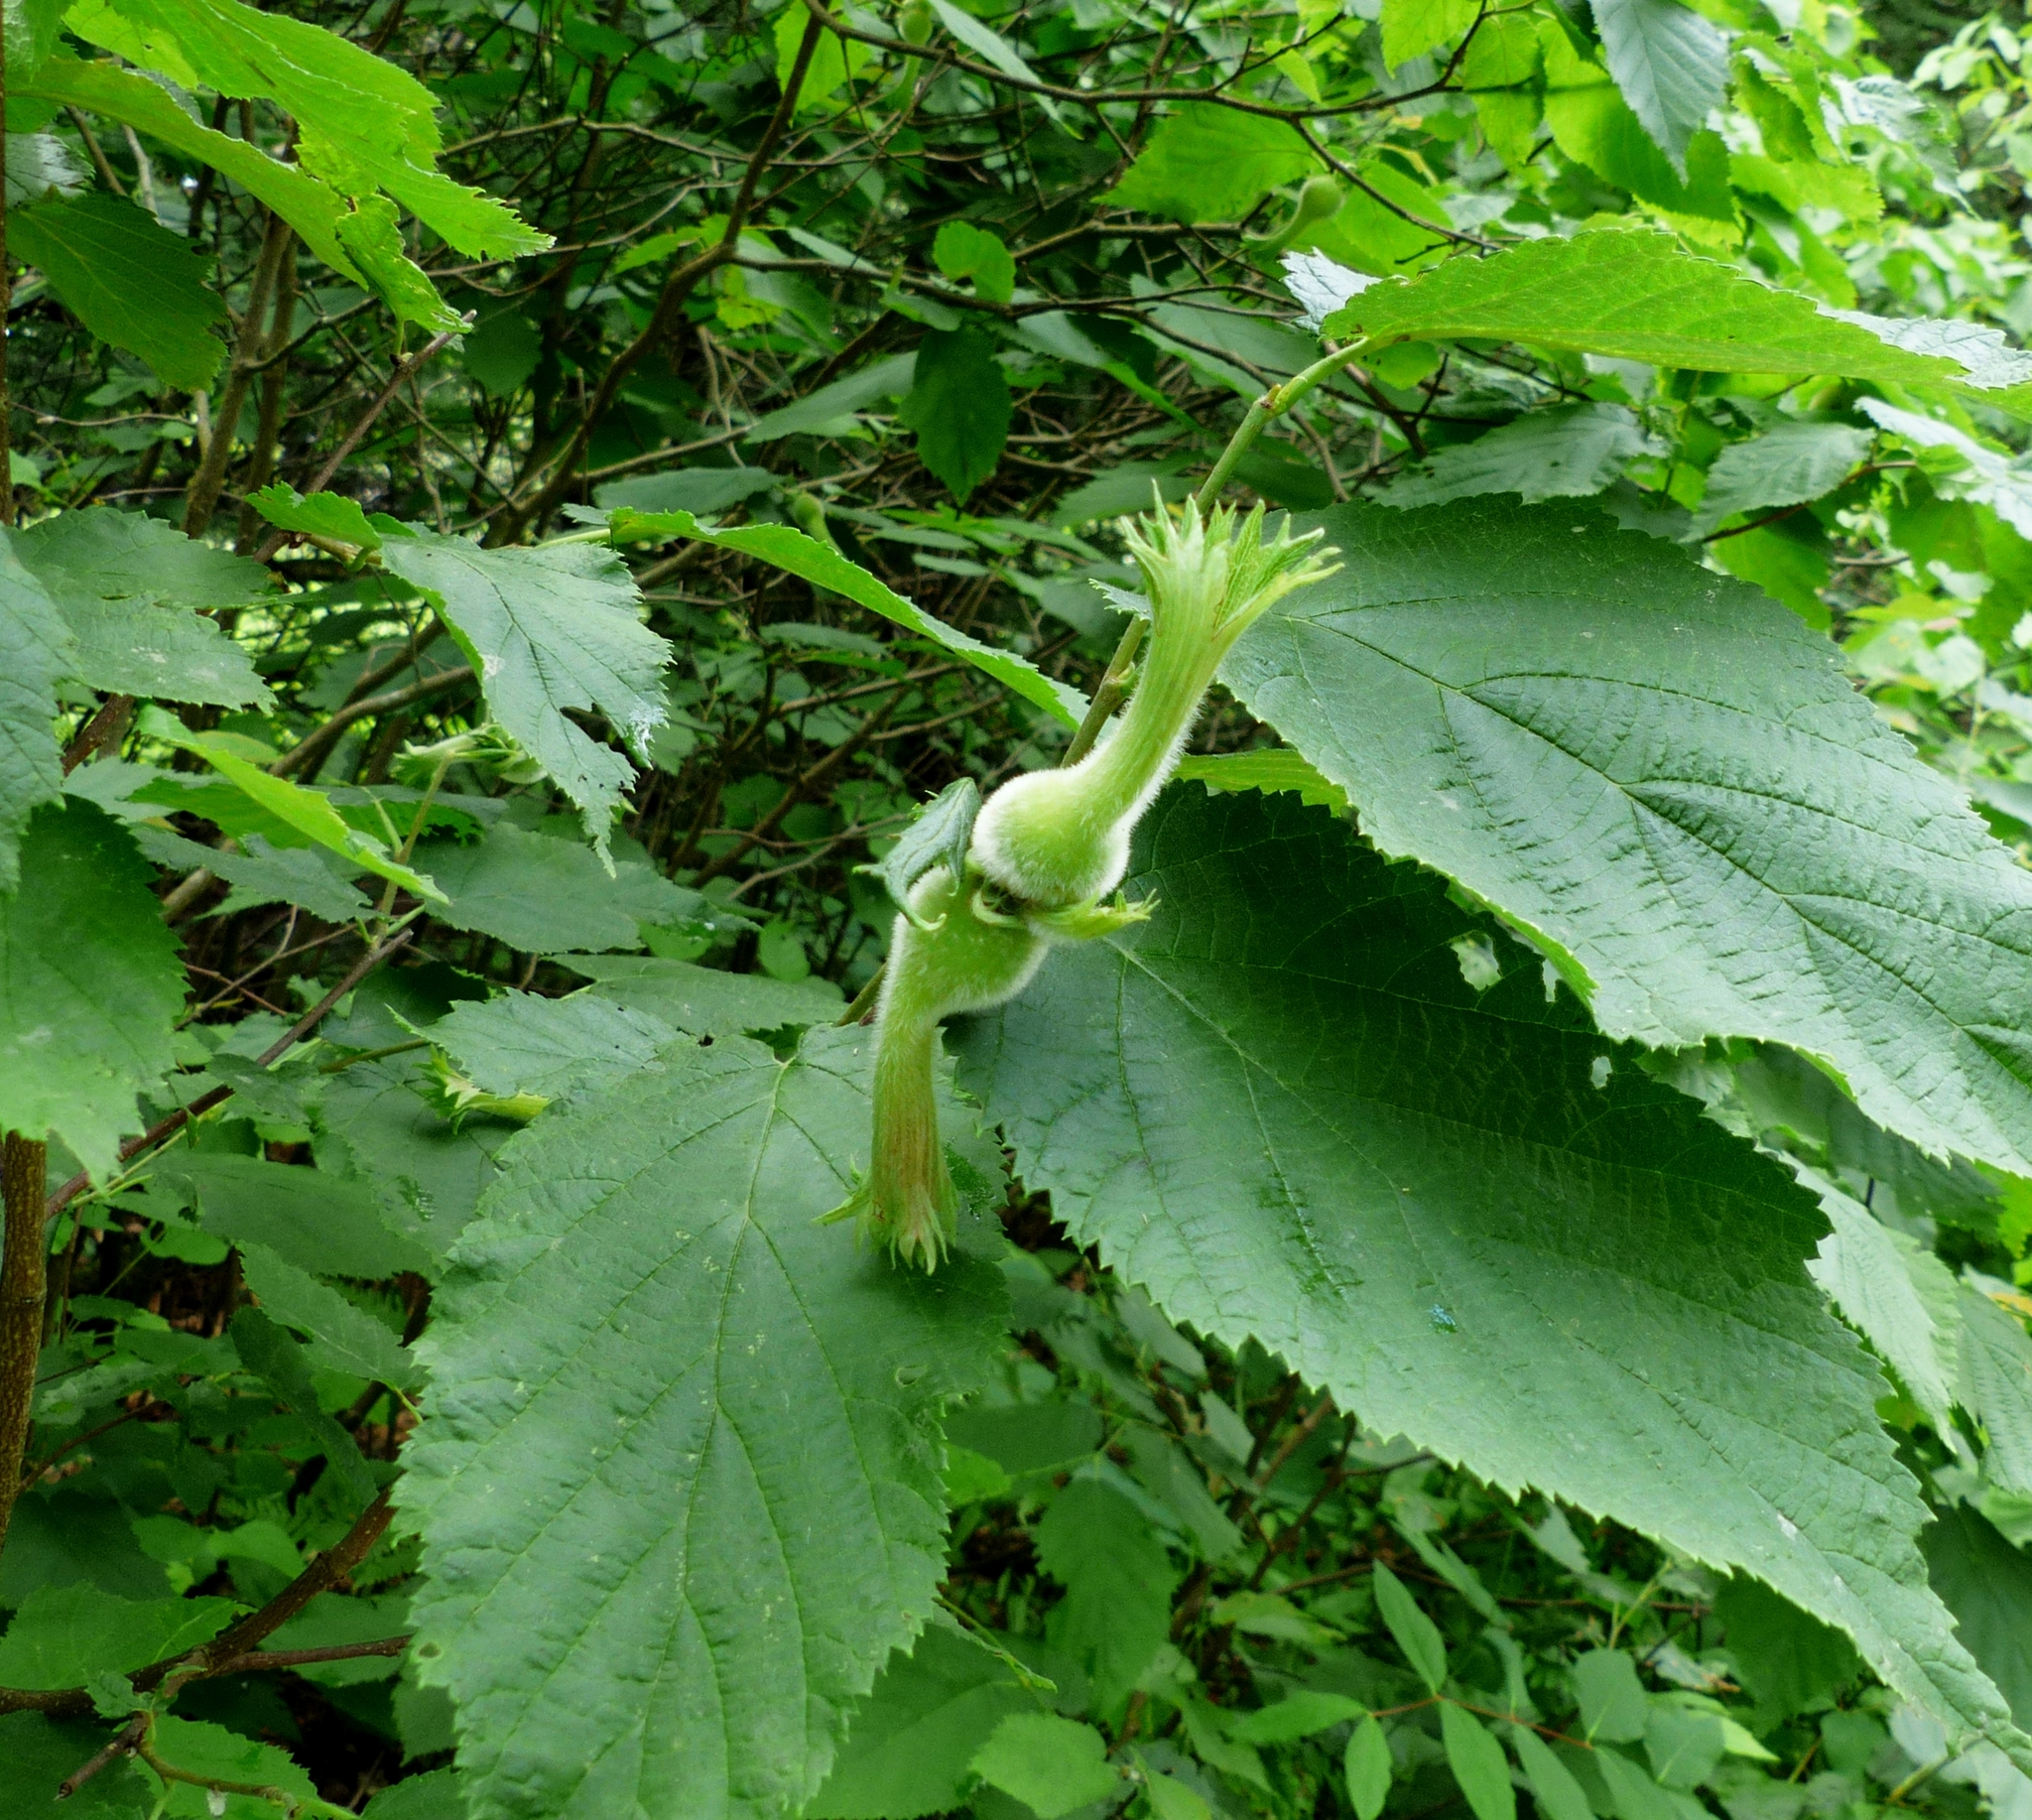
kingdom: Plantae
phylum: Tracheophyta
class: Magnoliopsida
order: Fagales
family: Betulaceae
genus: Corylus
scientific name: Corylus cornuta
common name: Beaked hazel
